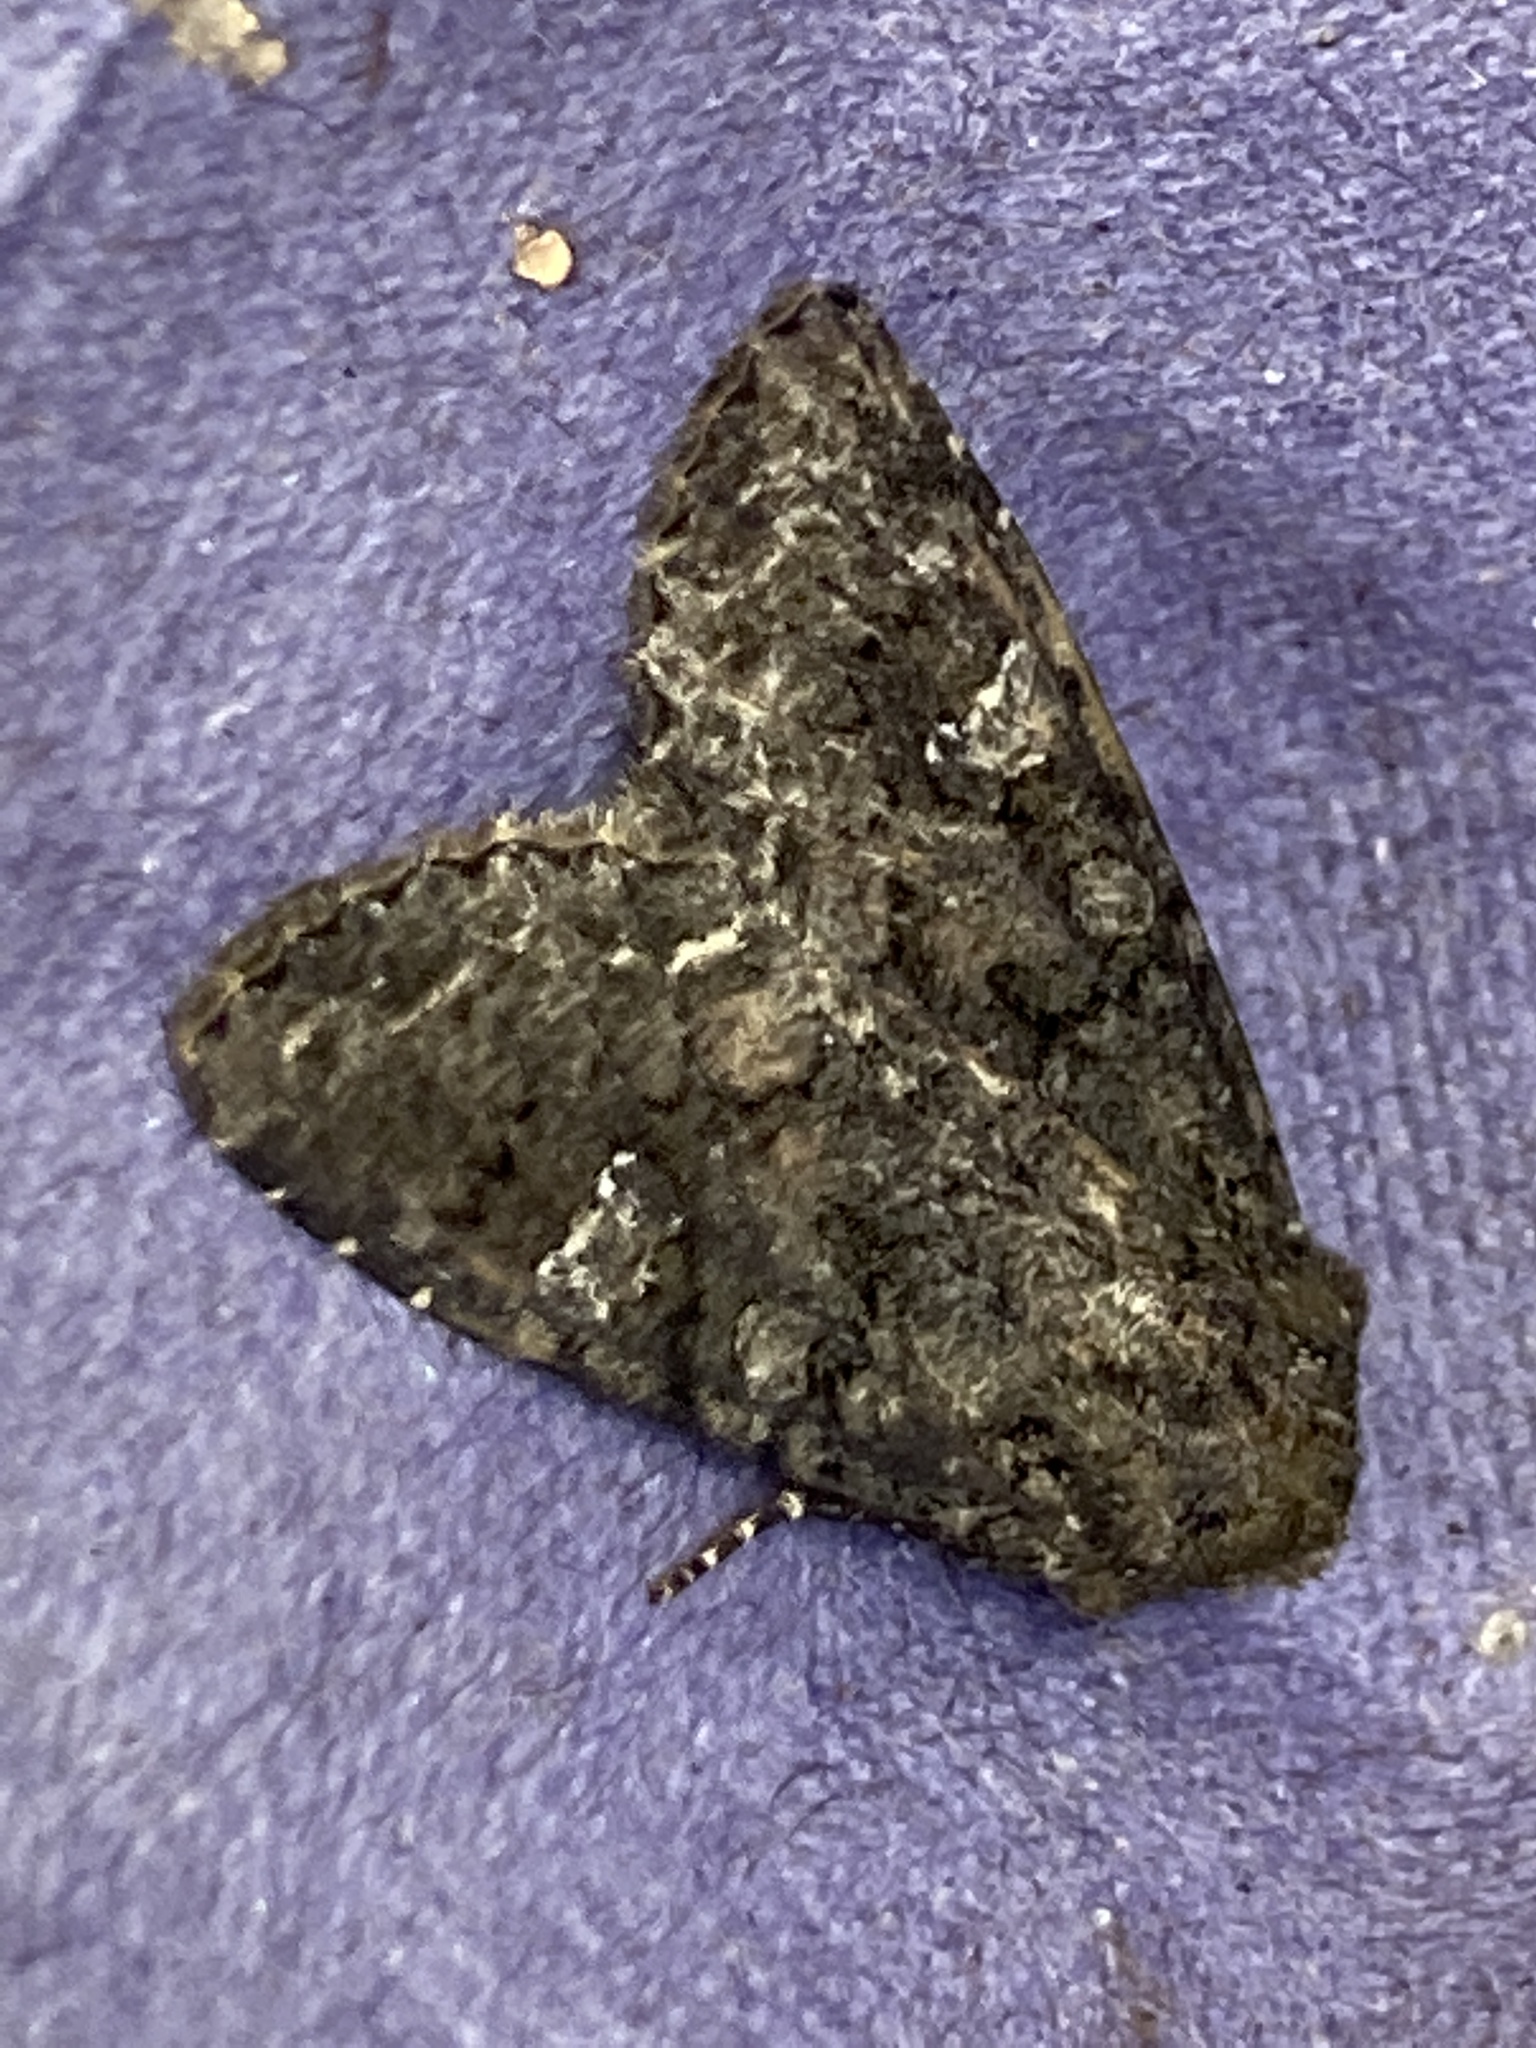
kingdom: Animalia
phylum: Arthropoda
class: Insecta
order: Lepidoptera
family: Noctuidae
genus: Mamestra
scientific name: Mamestra brassicae
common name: Cabbage moth
